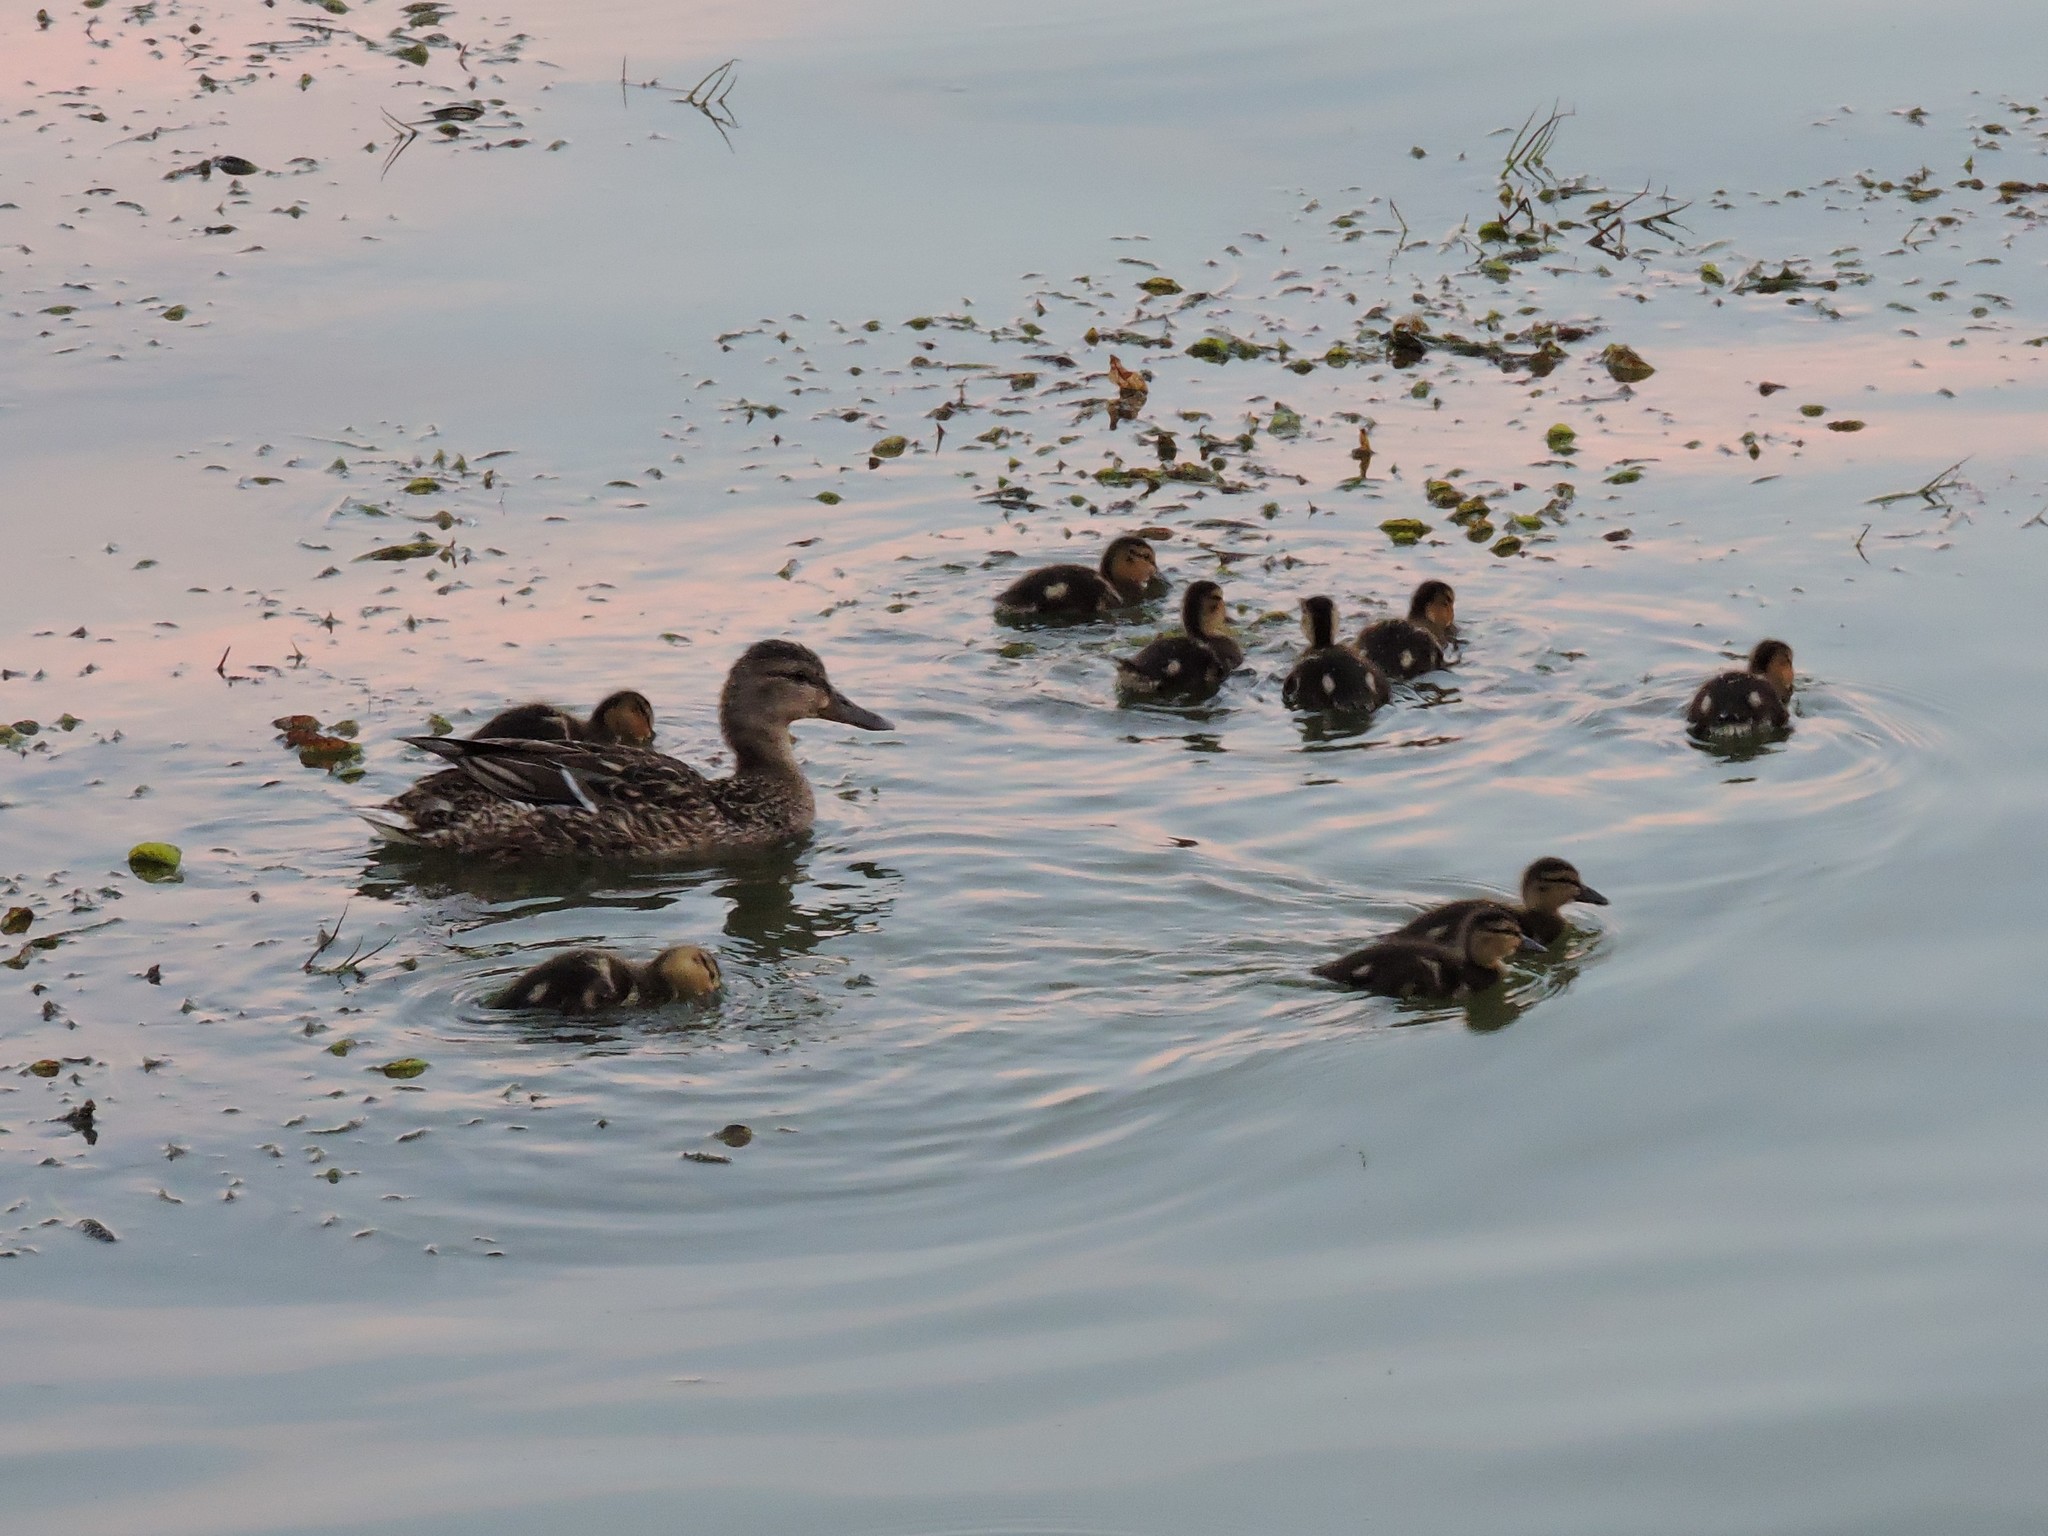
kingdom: Animalia
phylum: Chordata
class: Aves
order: Anseriformes
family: Anatidae
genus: Anas
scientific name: Anas platyrhynchos
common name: Mallard
